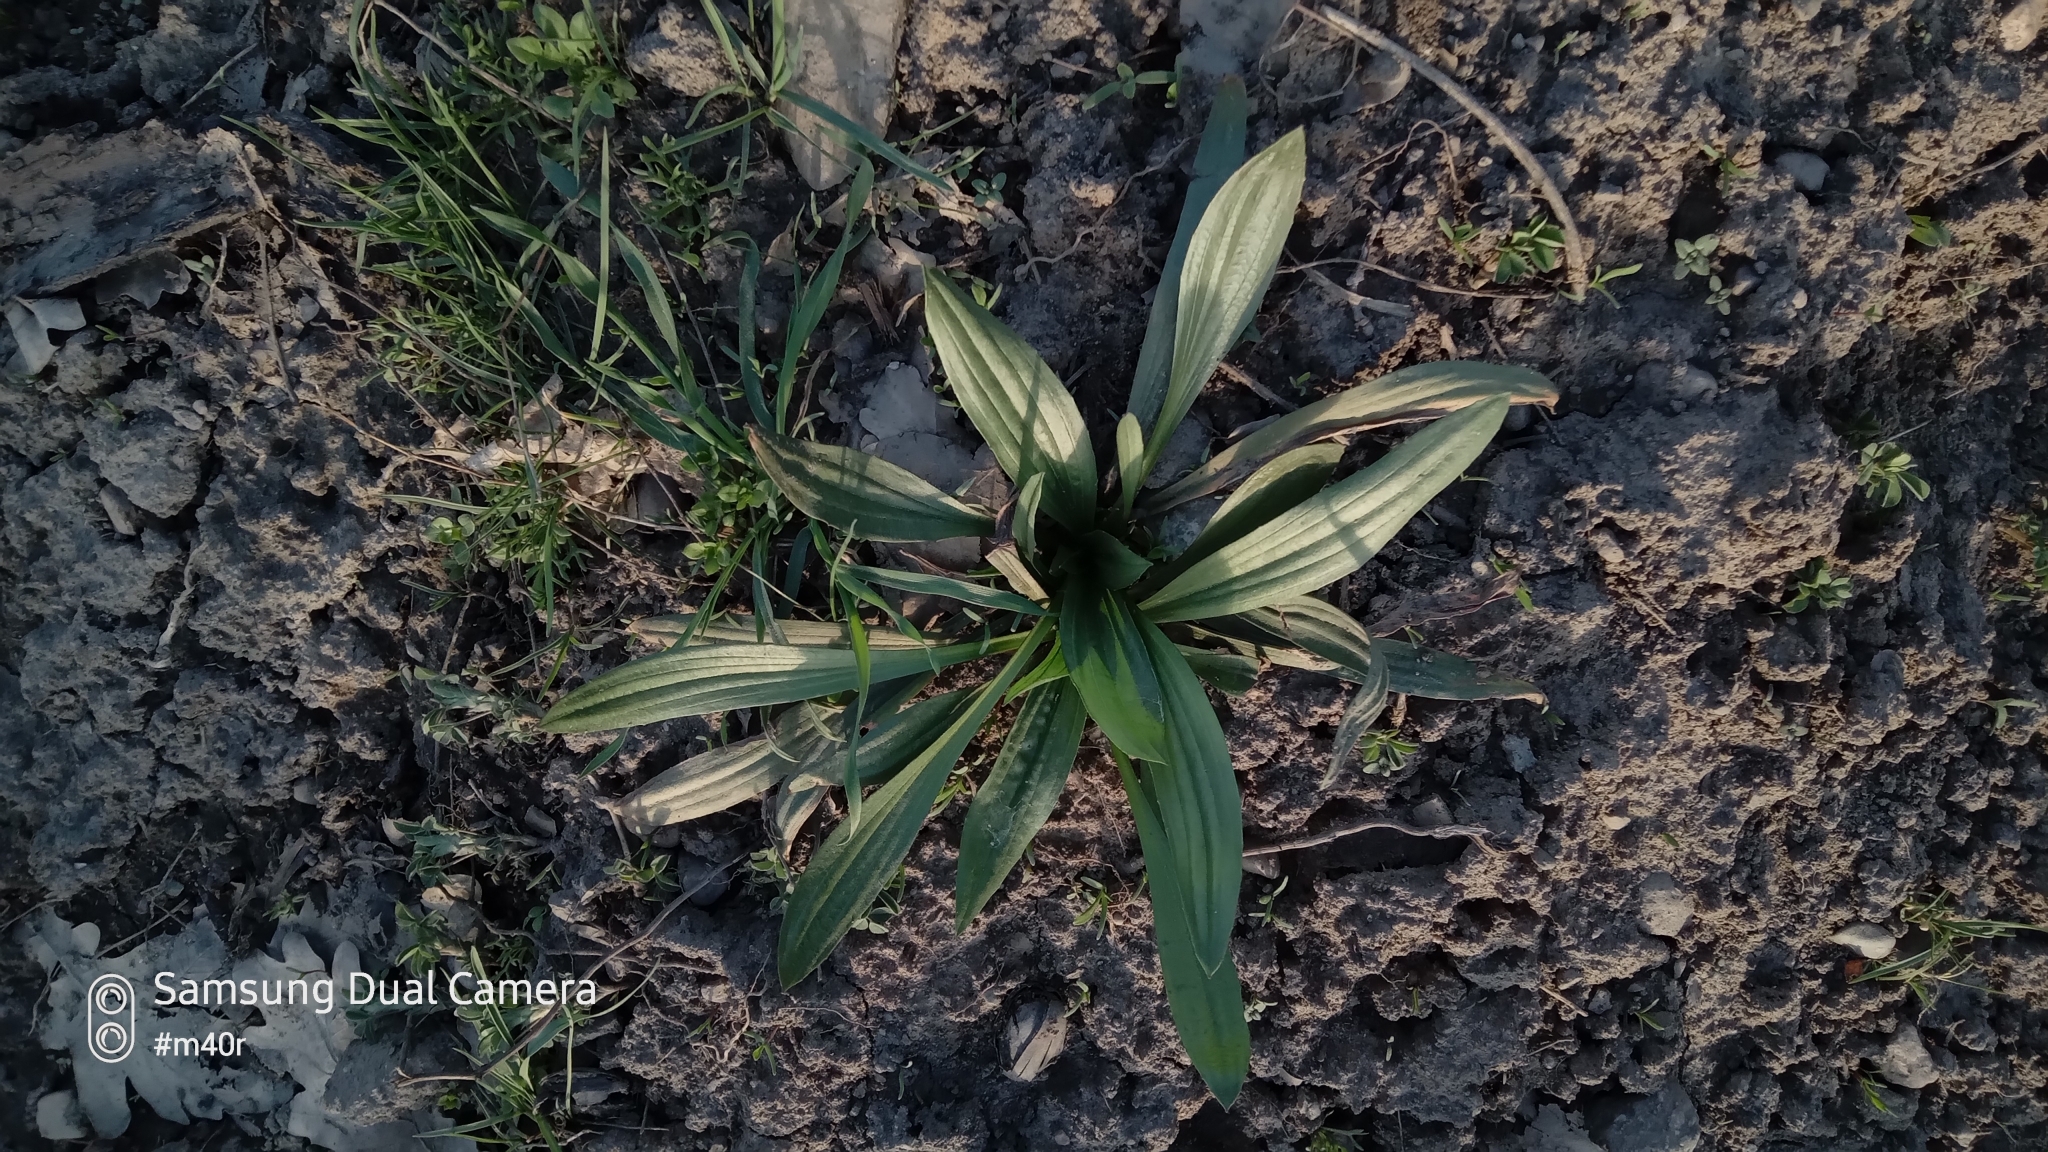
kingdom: Plantae
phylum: Tracheophyta
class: Magnoliopsida
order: Lamiales
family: Plantaginaceae
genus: Plantago
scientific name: Plantago lanceolata
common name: Ribwort plantain
